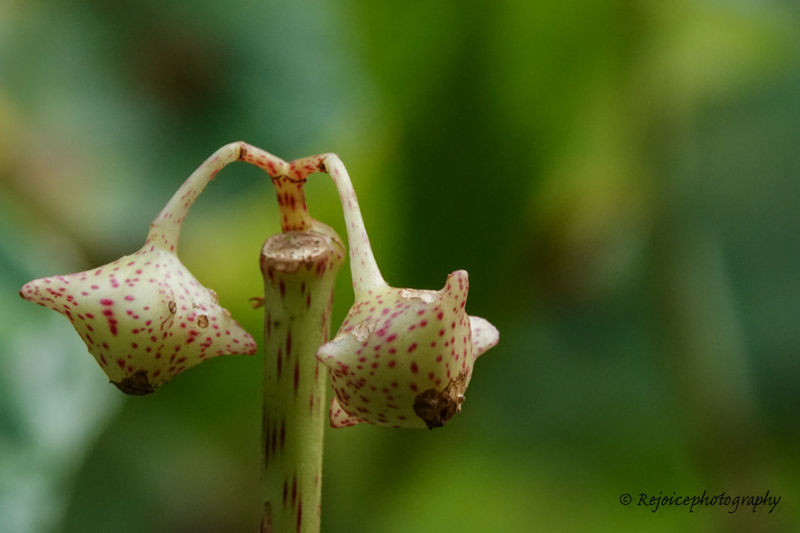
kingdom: Plantae
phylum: Tracheophyta
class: Magnoliopsida
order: Cucurbitales
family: Begoniaceae
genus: Begonia
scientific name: Begonia roxburghii
